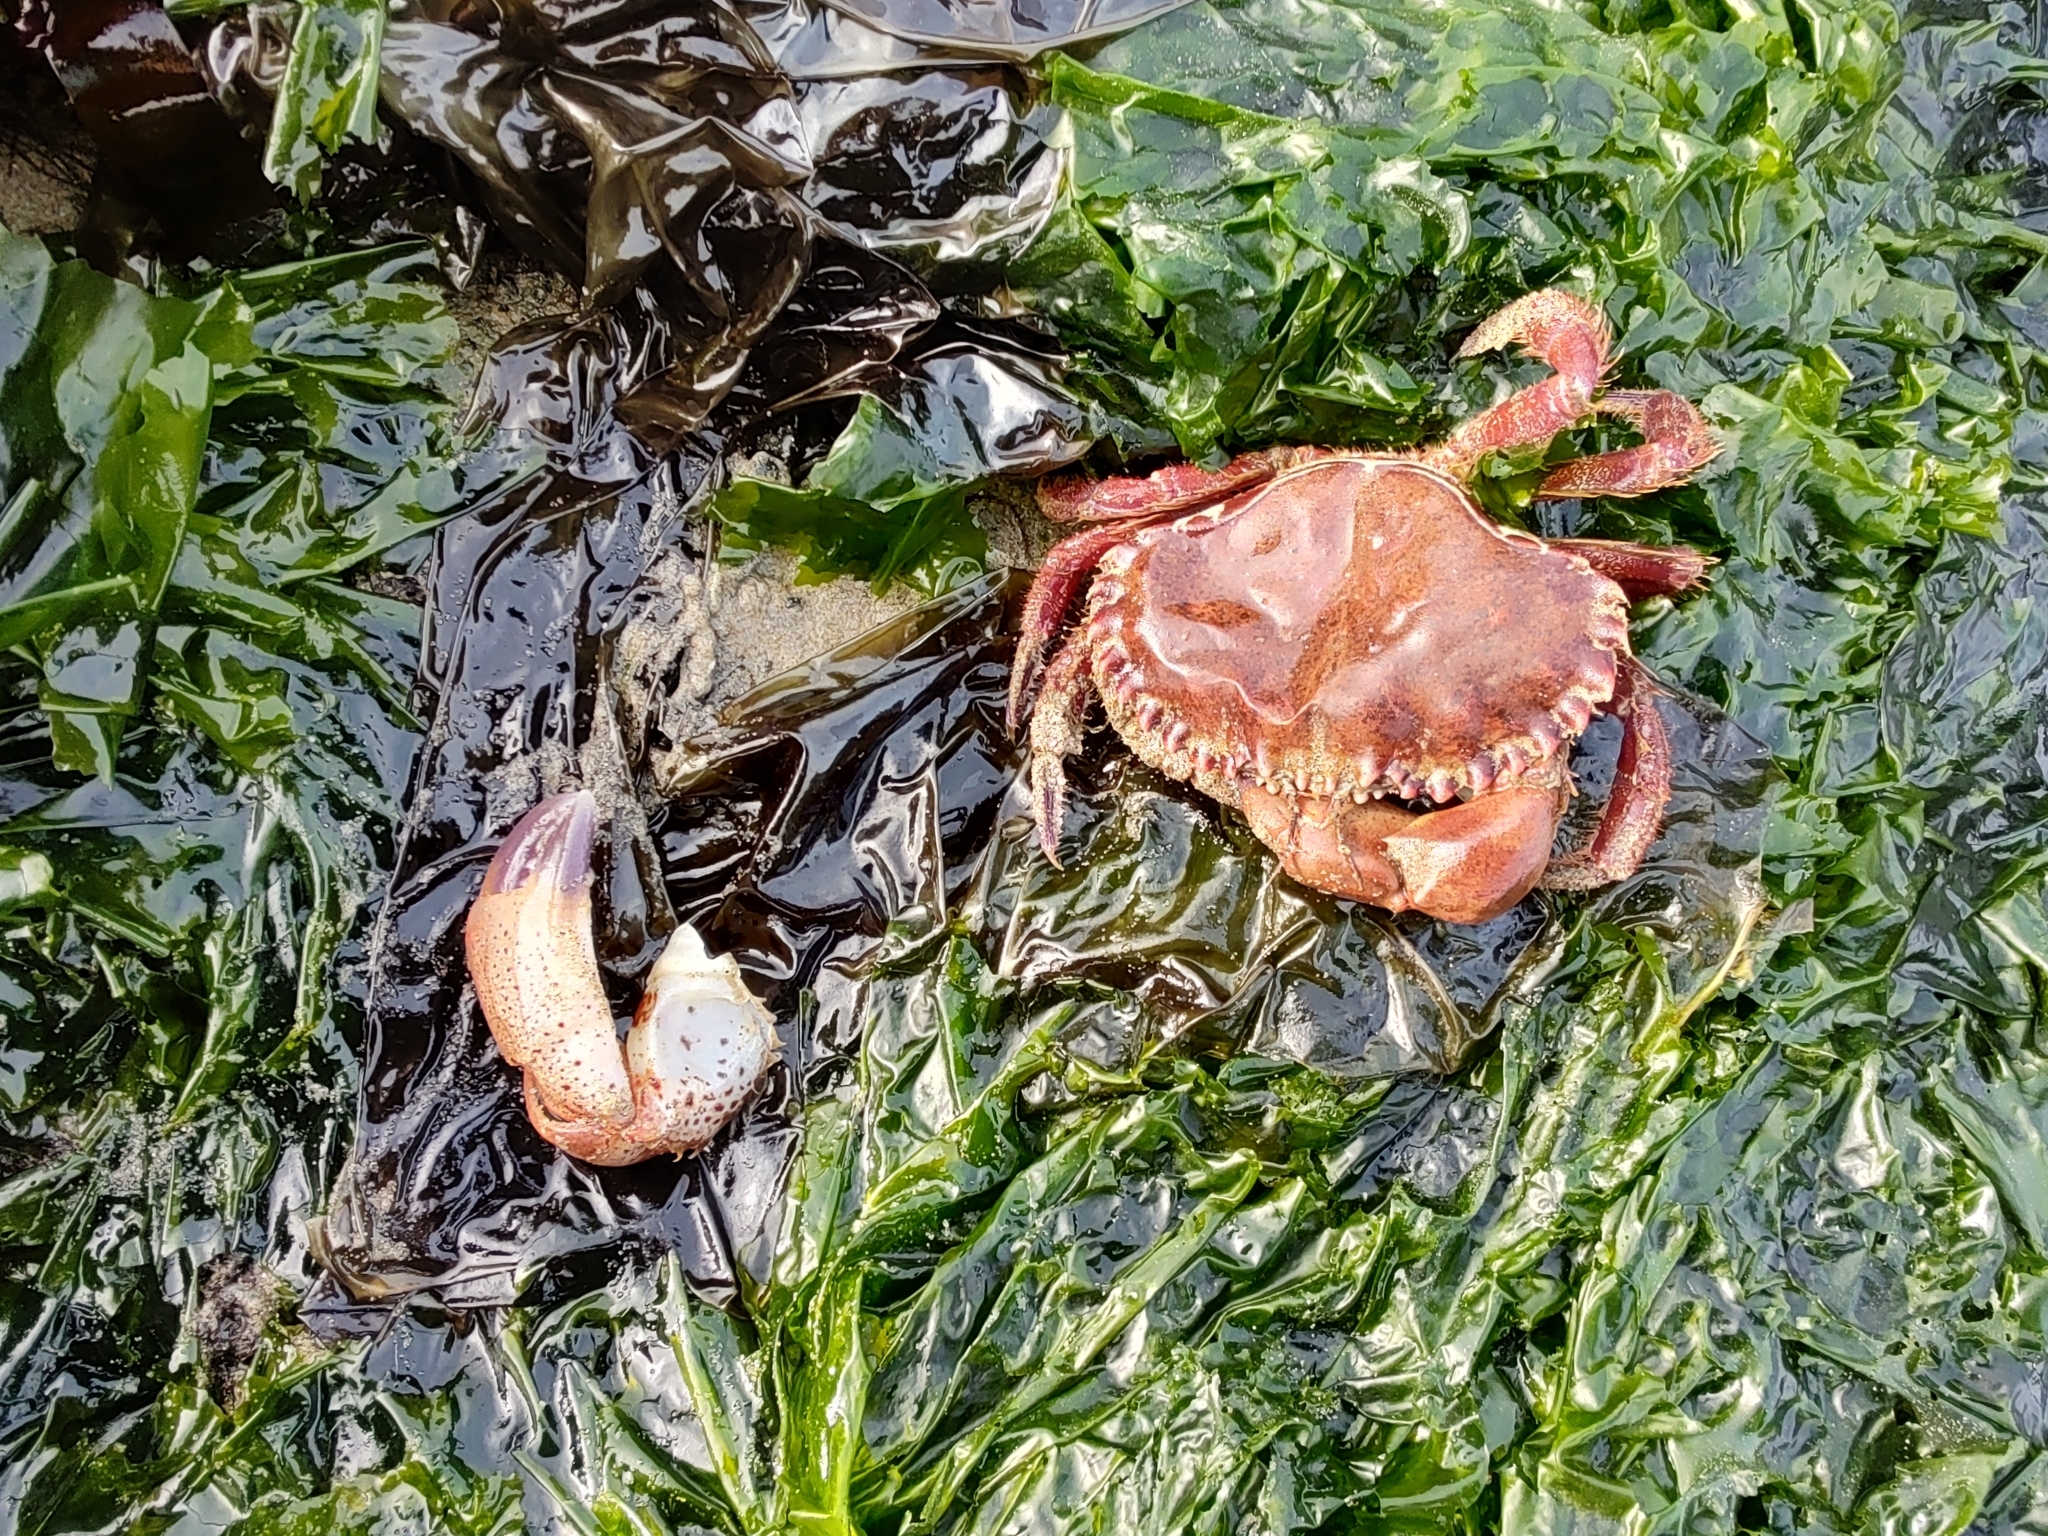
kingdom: Animalia
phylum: Arthropoda
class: Malacostraca
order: Decapoda
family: Cancridae
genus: Romaleon
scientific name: Romaleon antennarium
